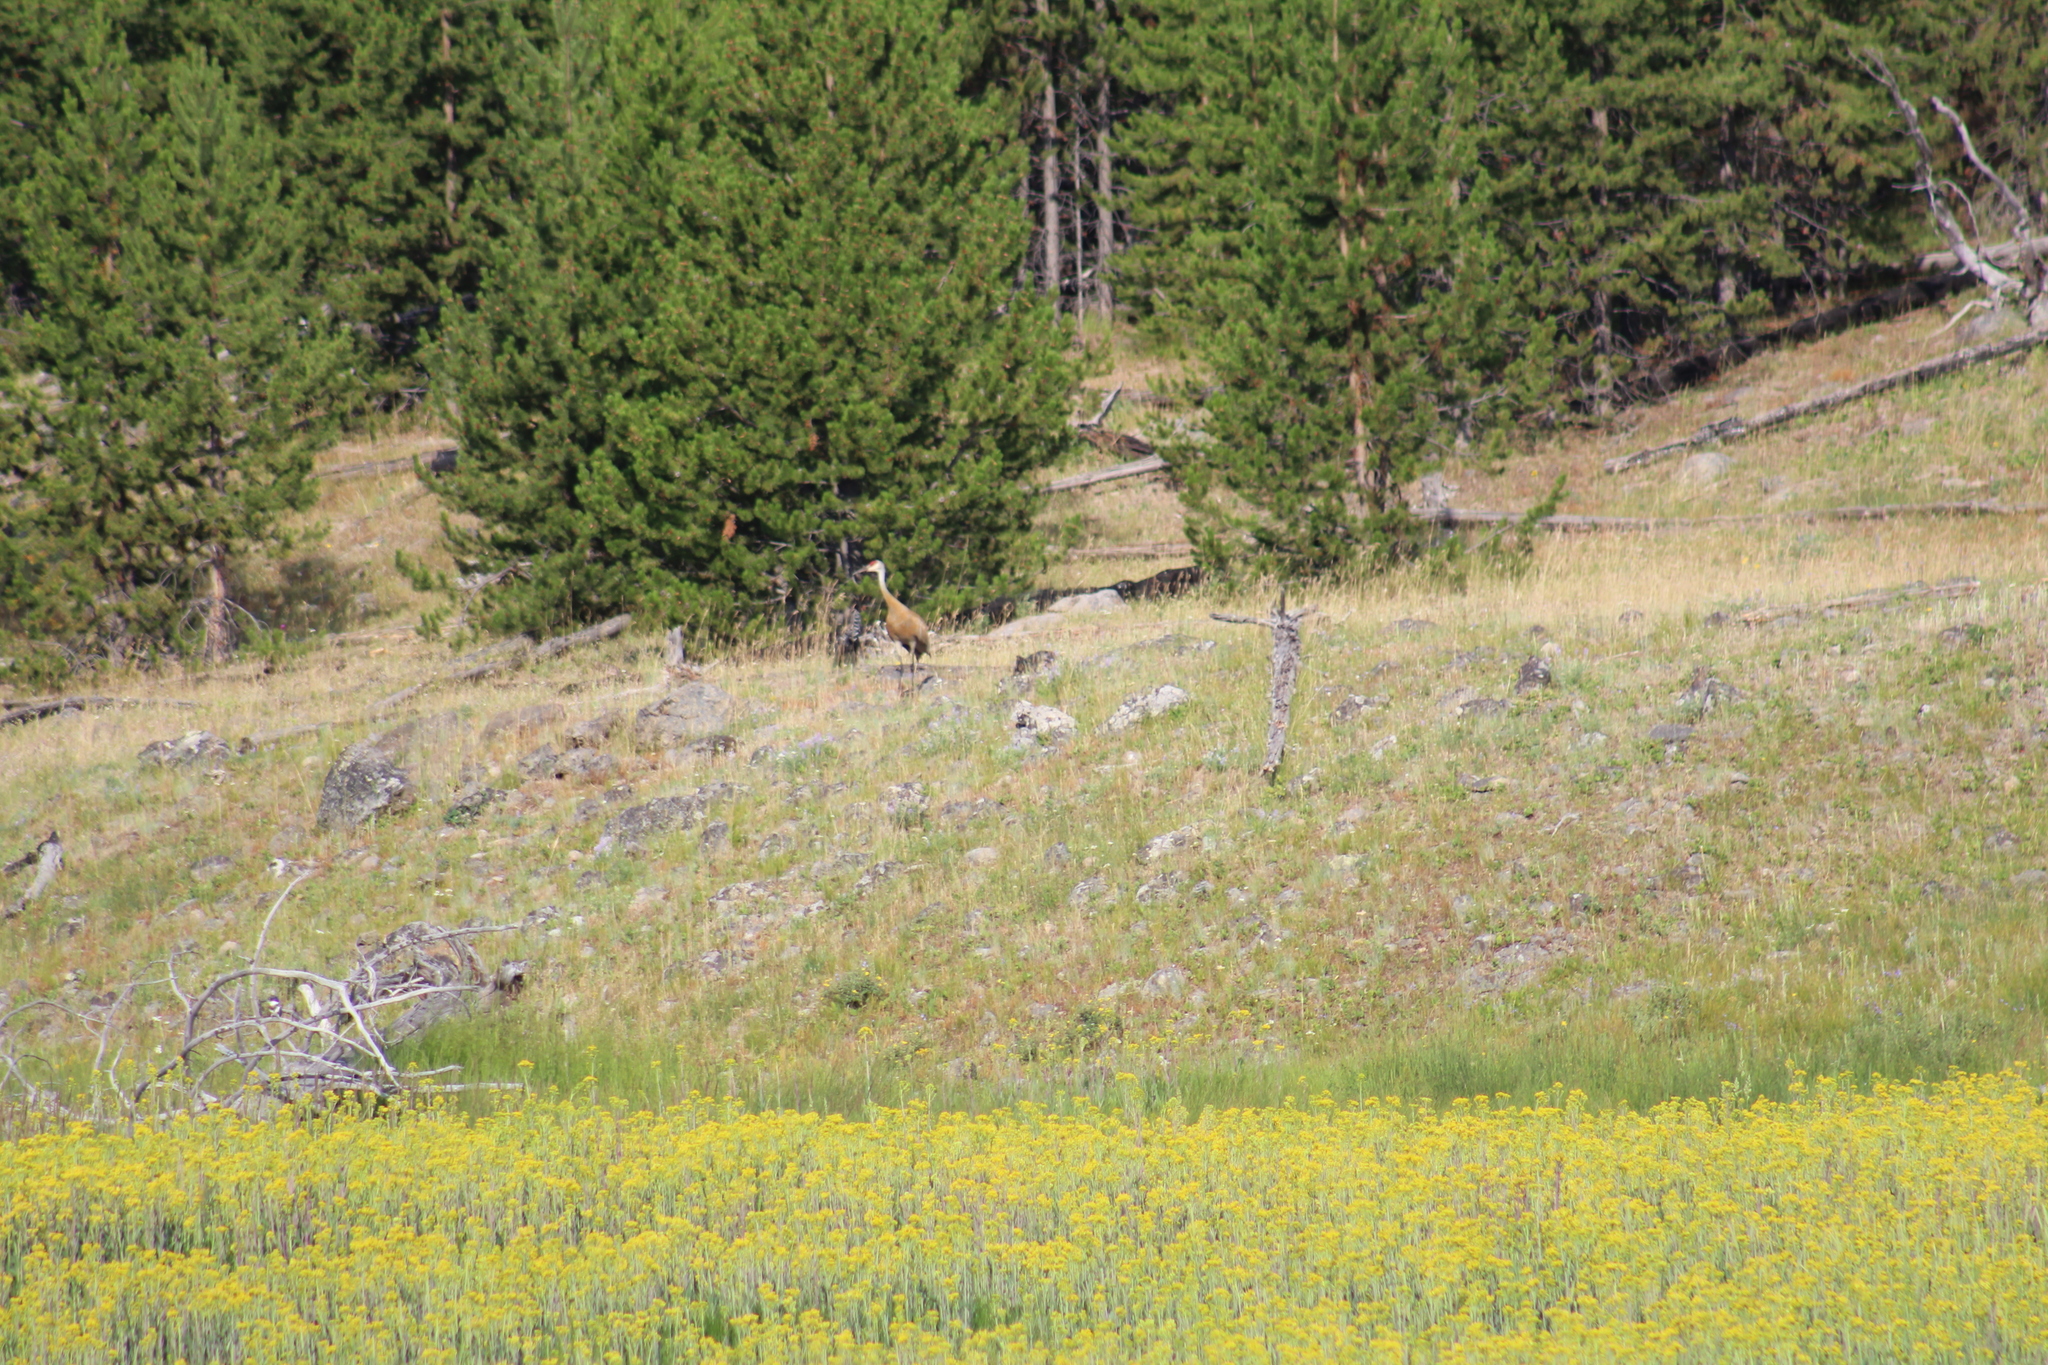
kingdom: Animalia
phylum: Chordata
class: Aves
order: Gruiformes
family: Gruidae
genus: Grus
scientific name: Grus canadensis
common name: Sandhill crane
